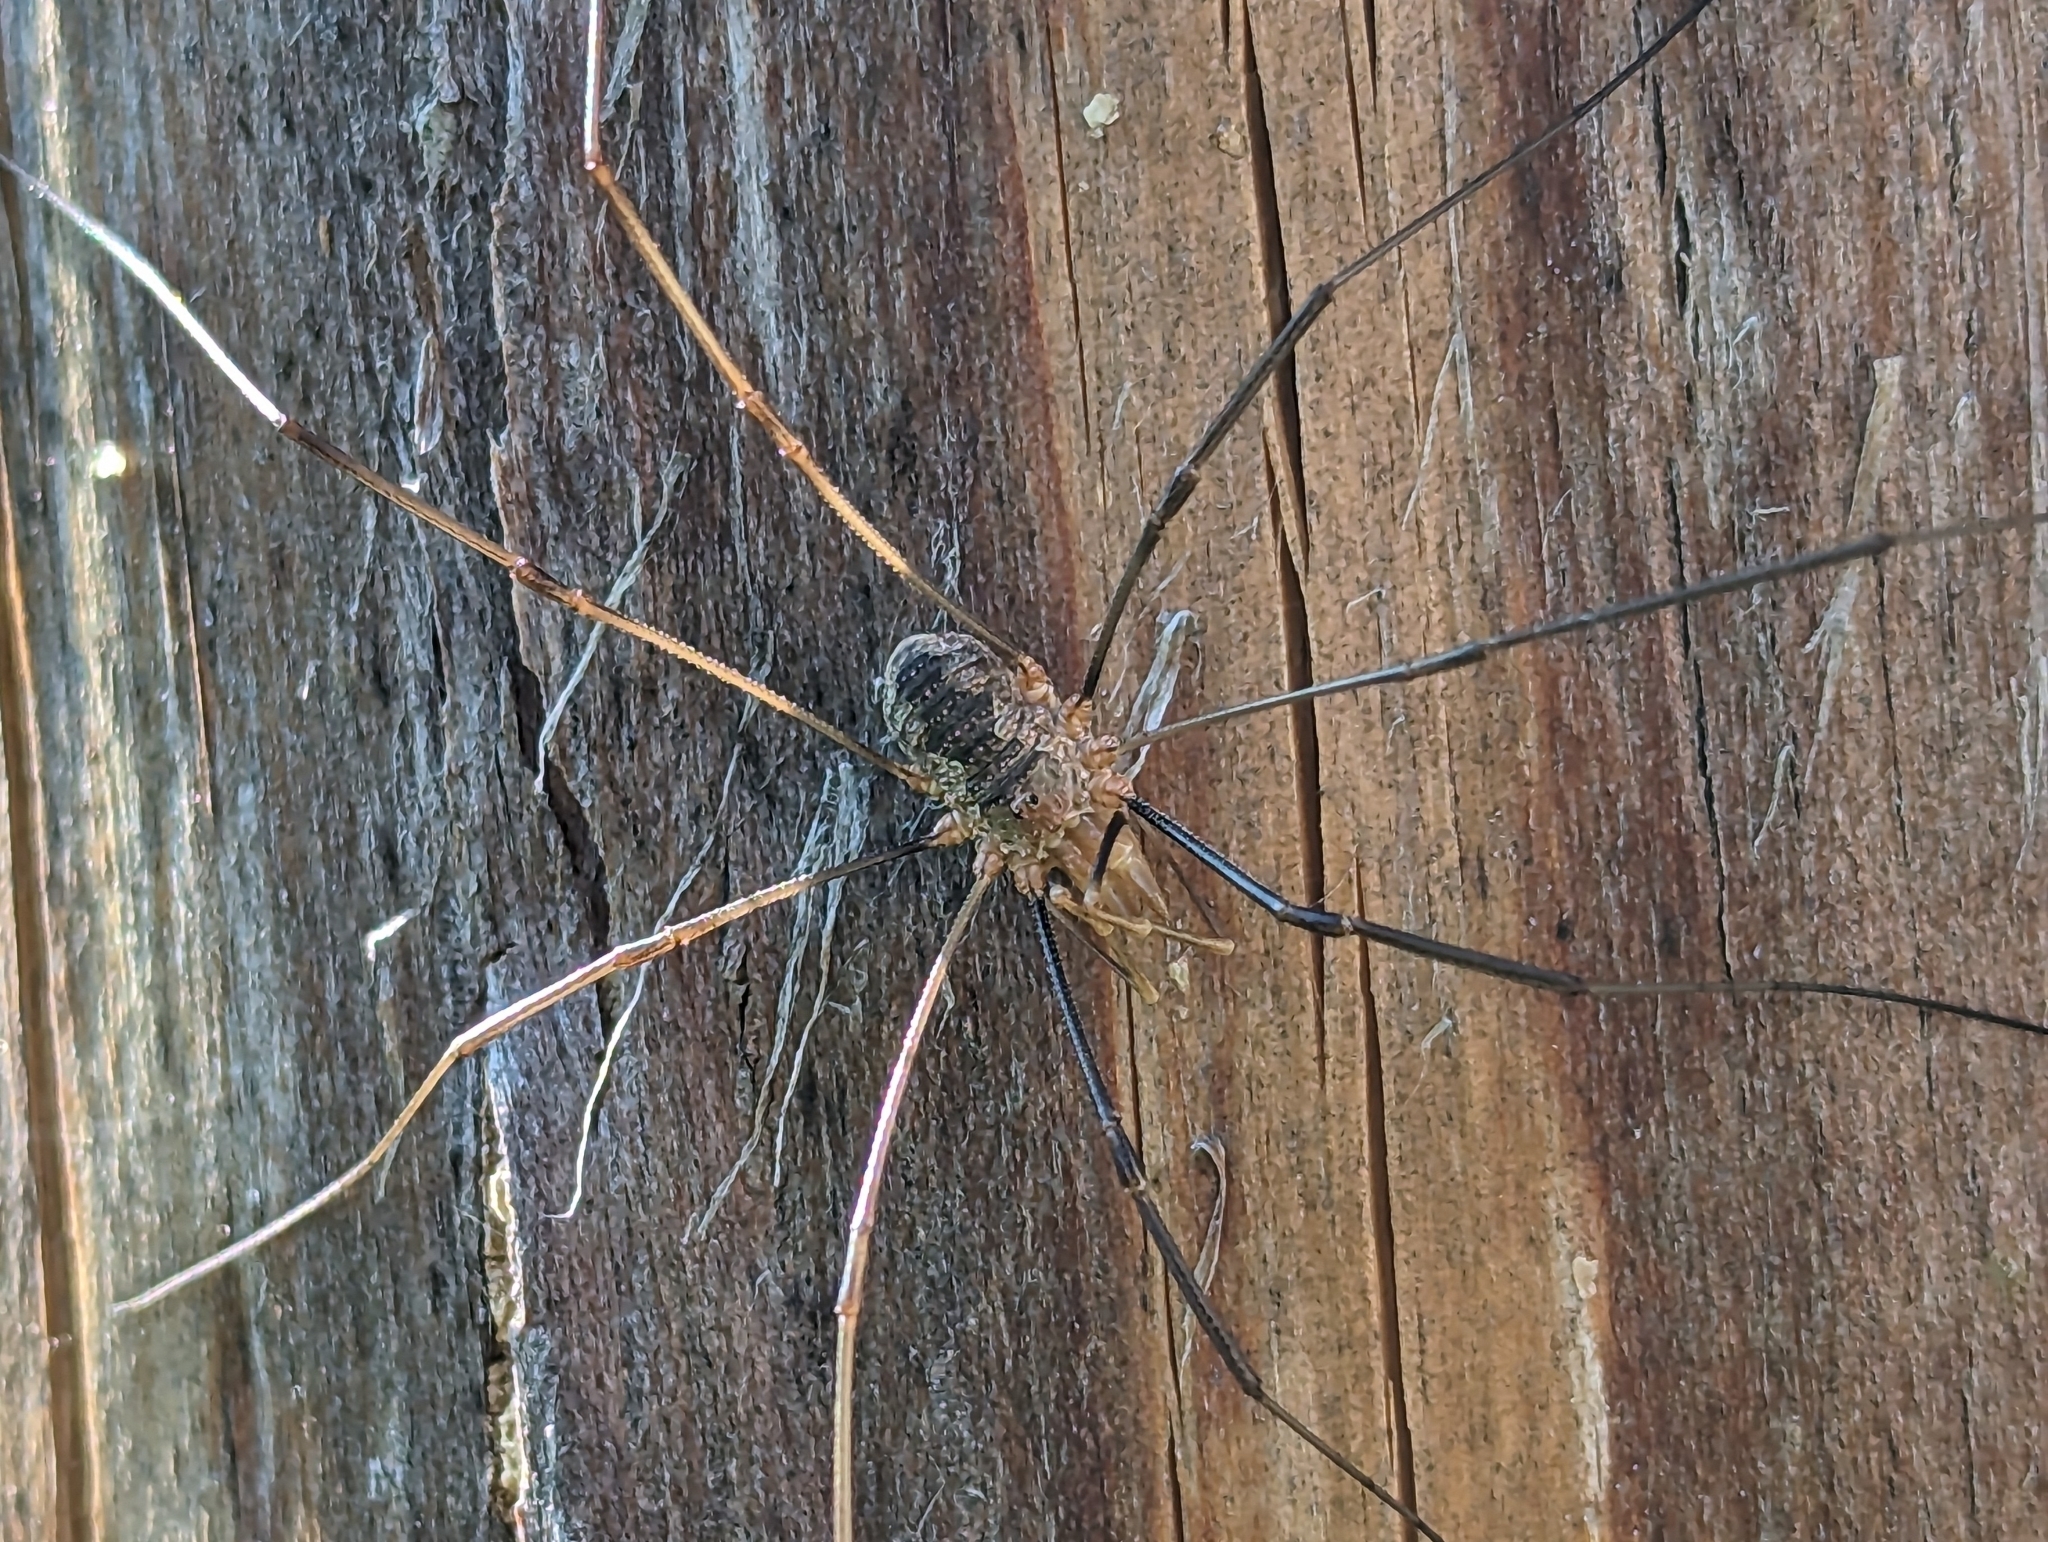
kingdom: Animalia
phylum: Arthropoda
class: Arachnida
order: Opiliones
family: Phalangiidae
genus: Phalangium
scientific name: Phalangium opilio
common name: Daddy longleg
